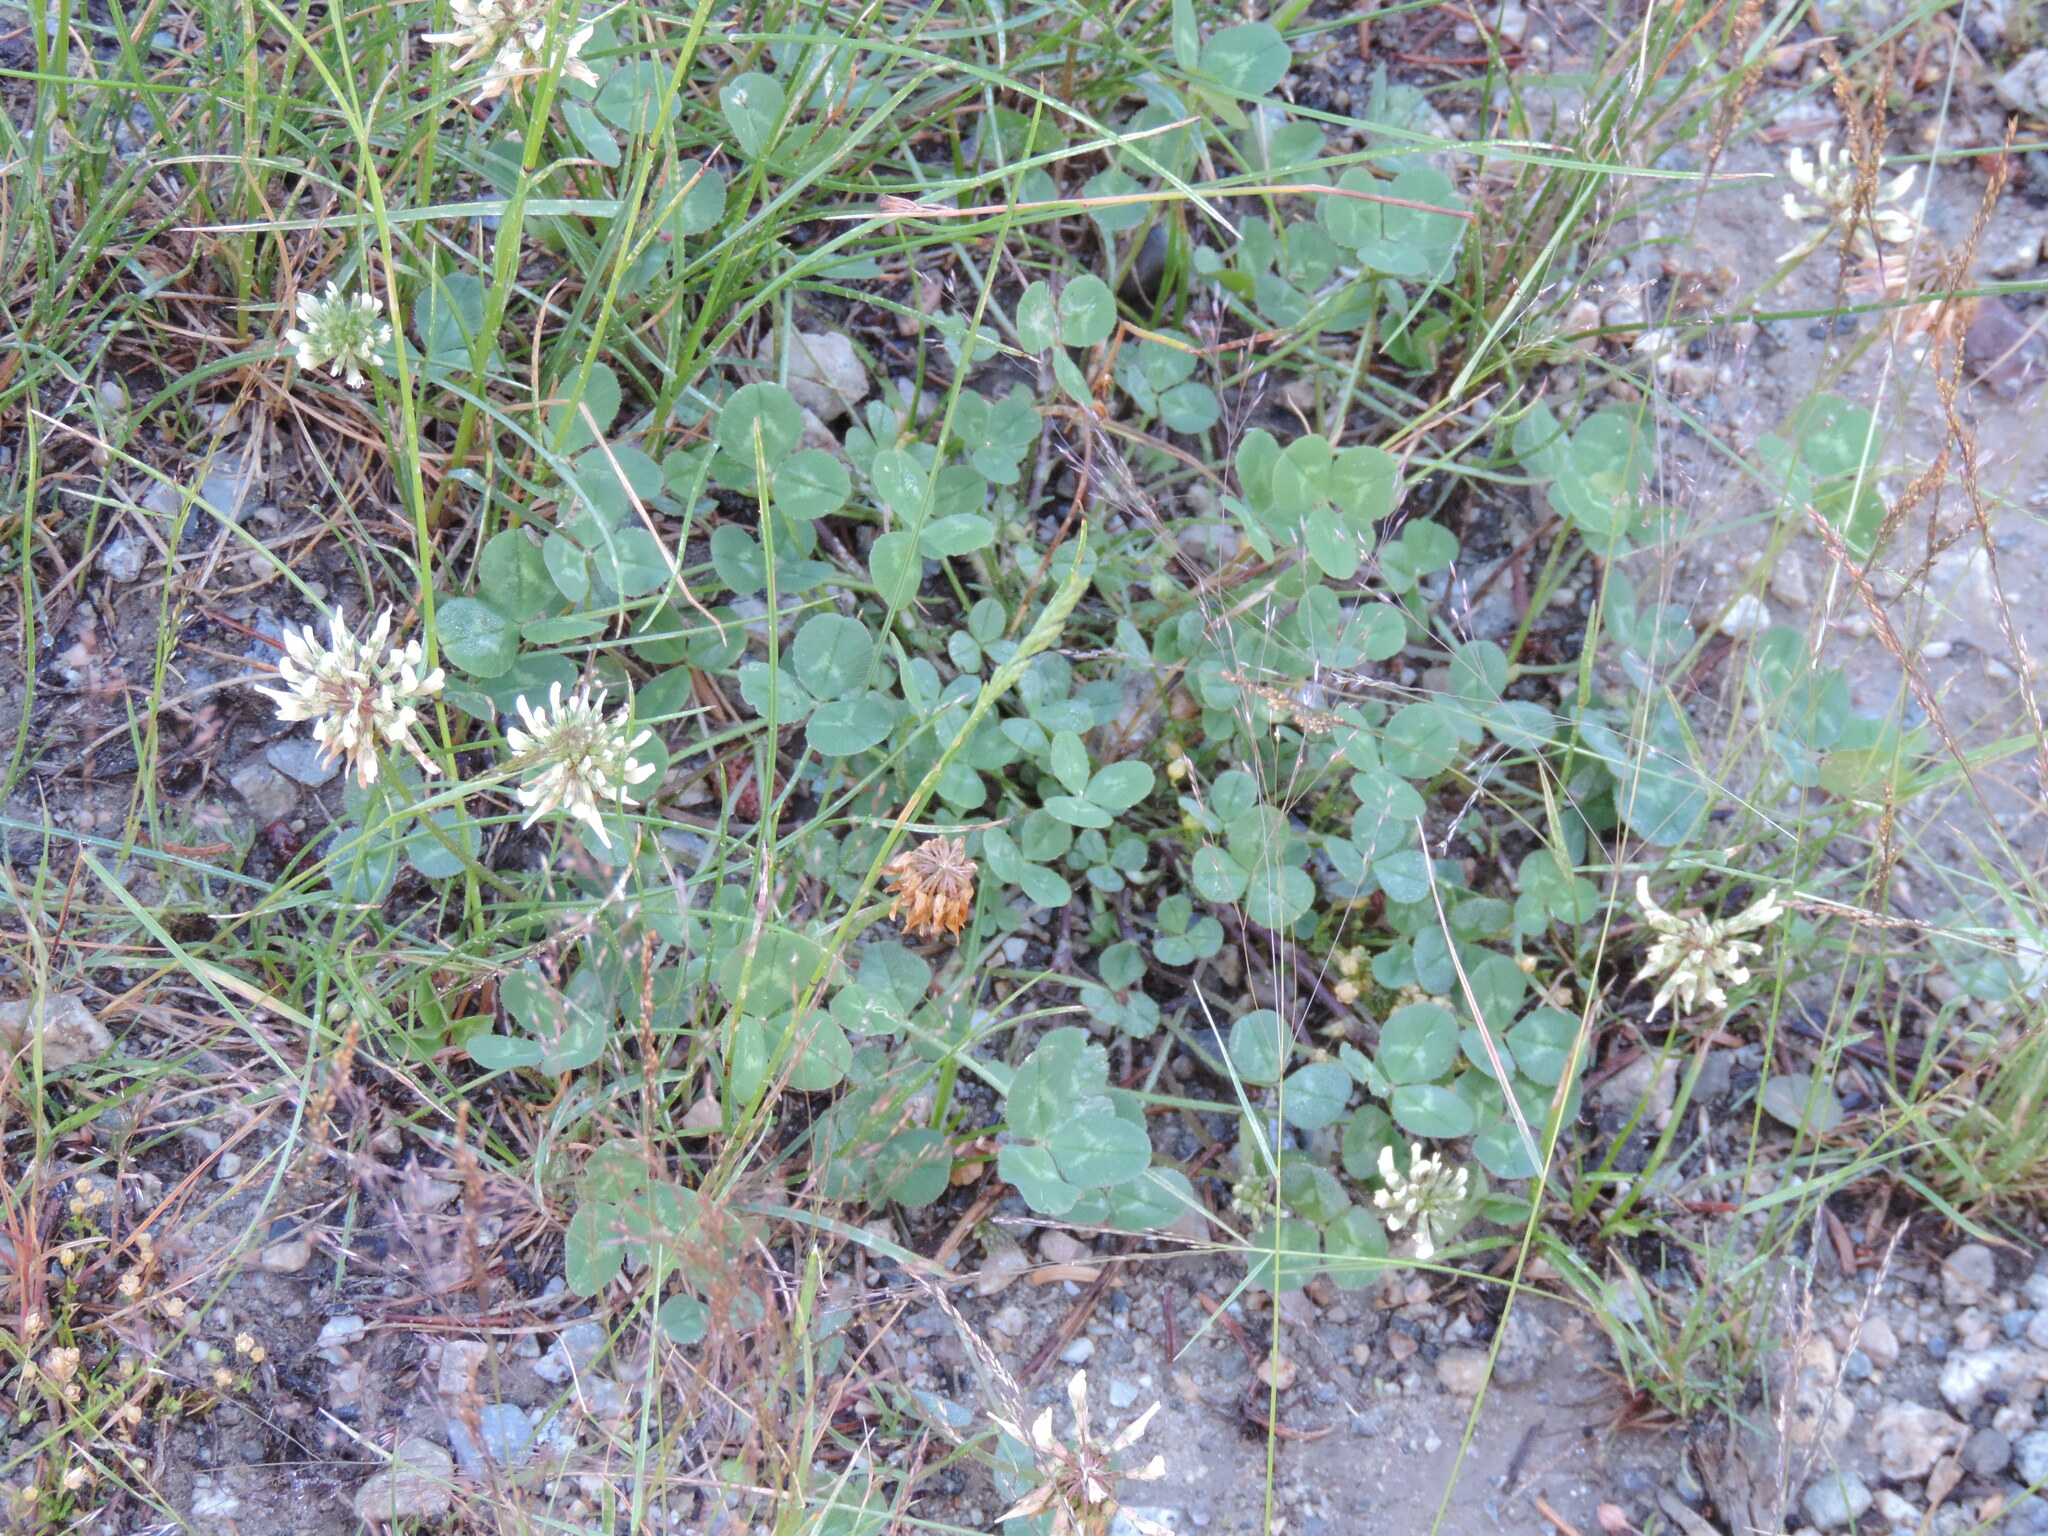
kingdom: Plantae
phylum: Tracheophyta
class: Magnoliopsida
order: Fabales
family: Fabaceae
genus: Trifolium
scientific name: Trifolium repens
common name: White clover
